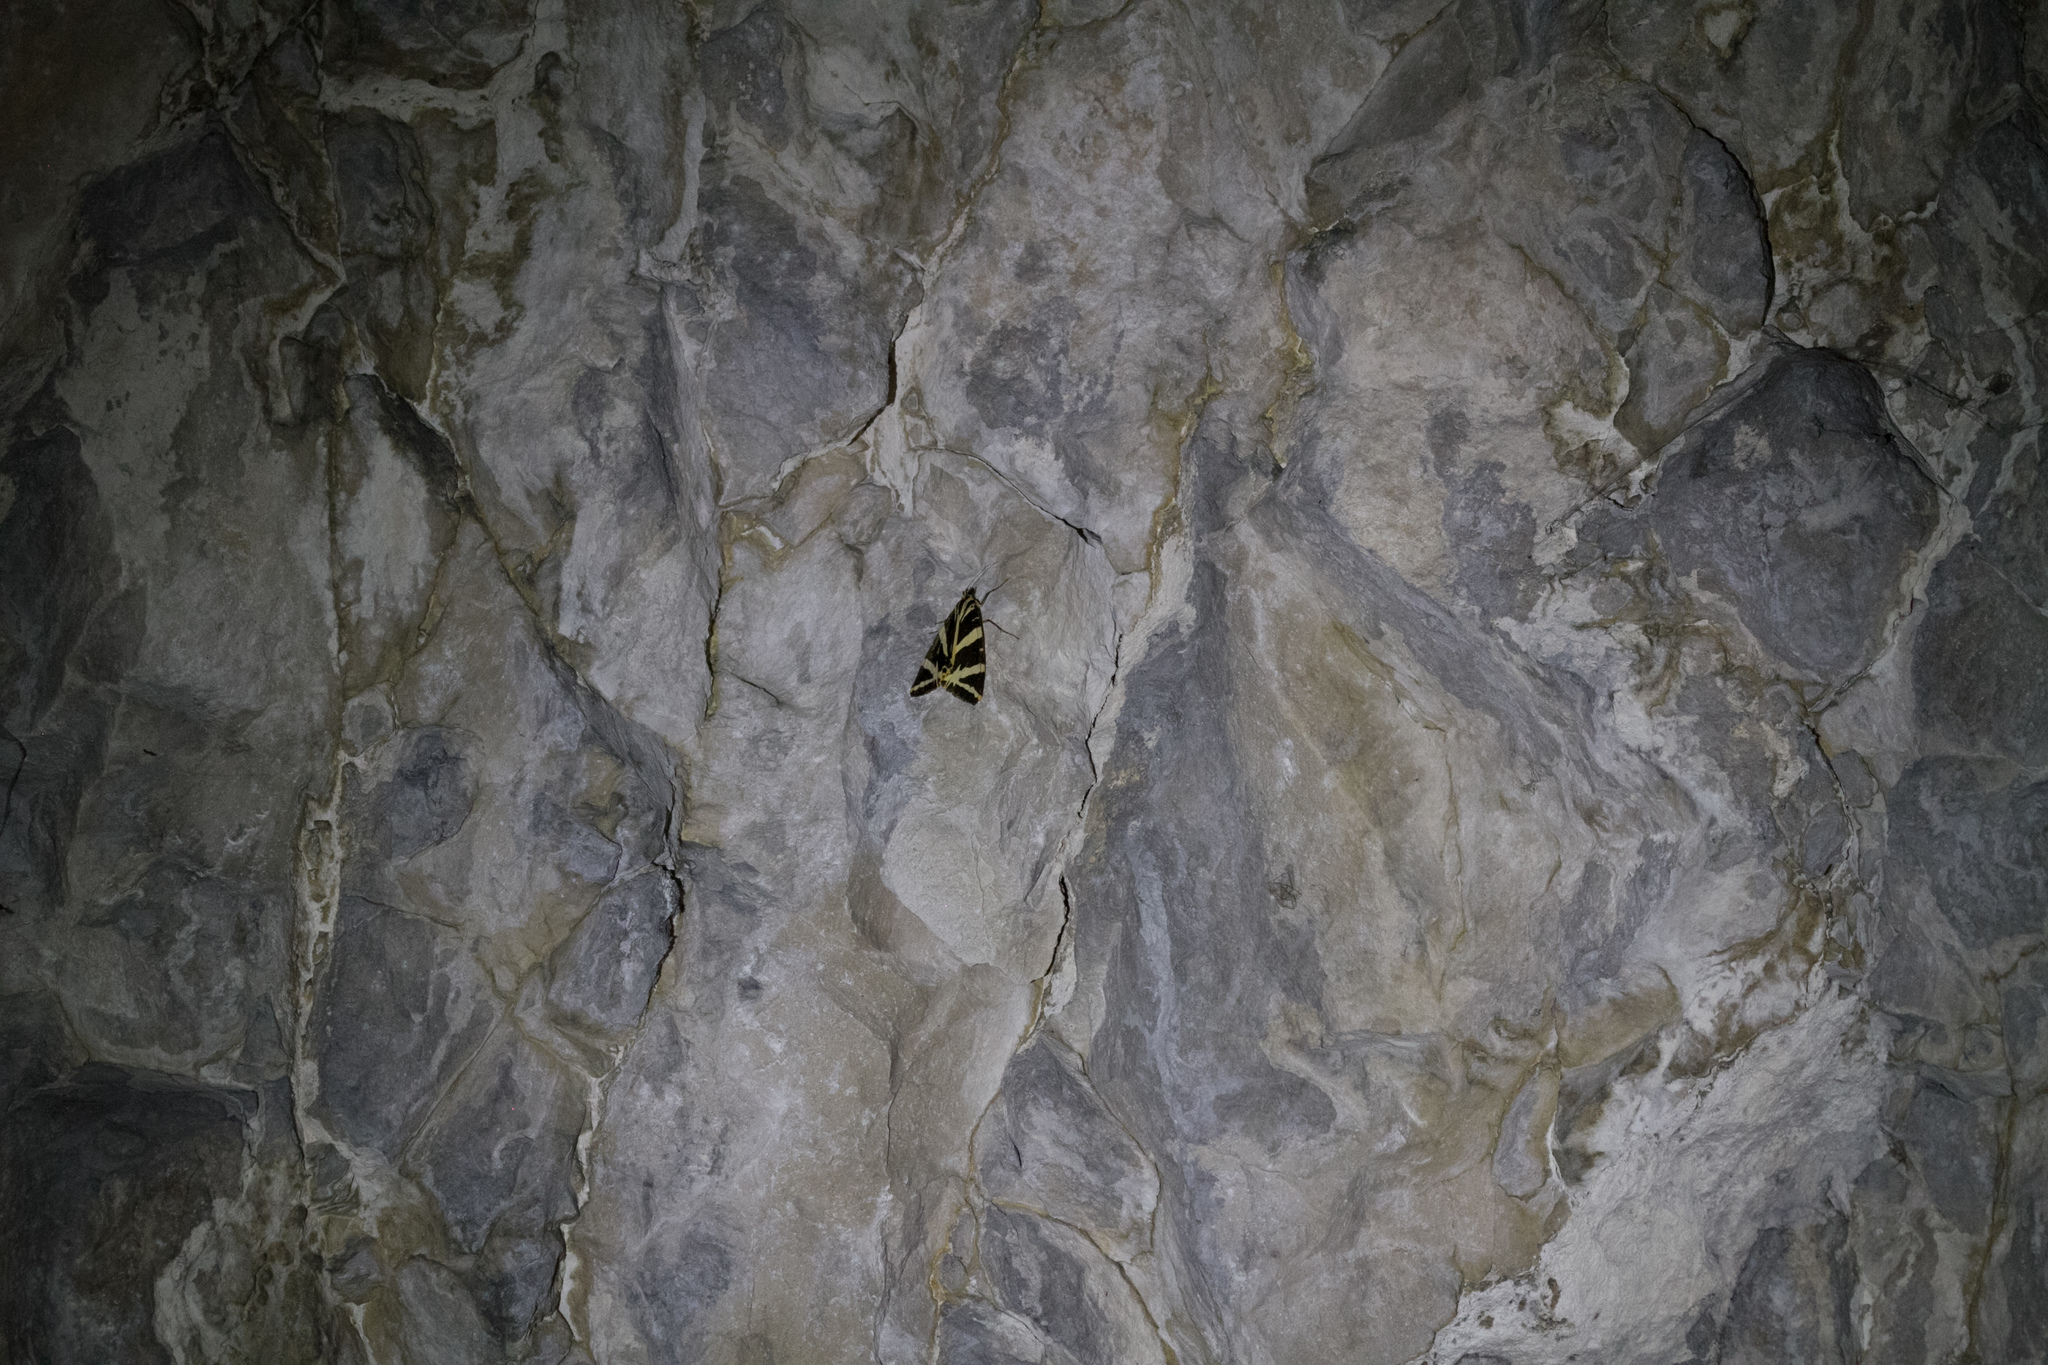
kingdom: Animalia
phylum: Arthropoda
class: Insecta
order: Lepidoptera
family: Erebidae
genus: Euplagia
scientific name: Euplagia quadripunctaria
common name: Jersey tiger
